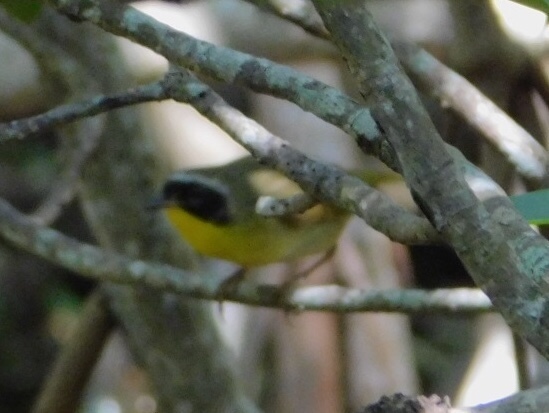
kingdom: Animalia
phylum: Chordata
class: Aves
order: Passeriformes
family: Parulidae
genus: Geothlypis
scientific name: Geothlypis trichas
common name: Common yellowthroat
